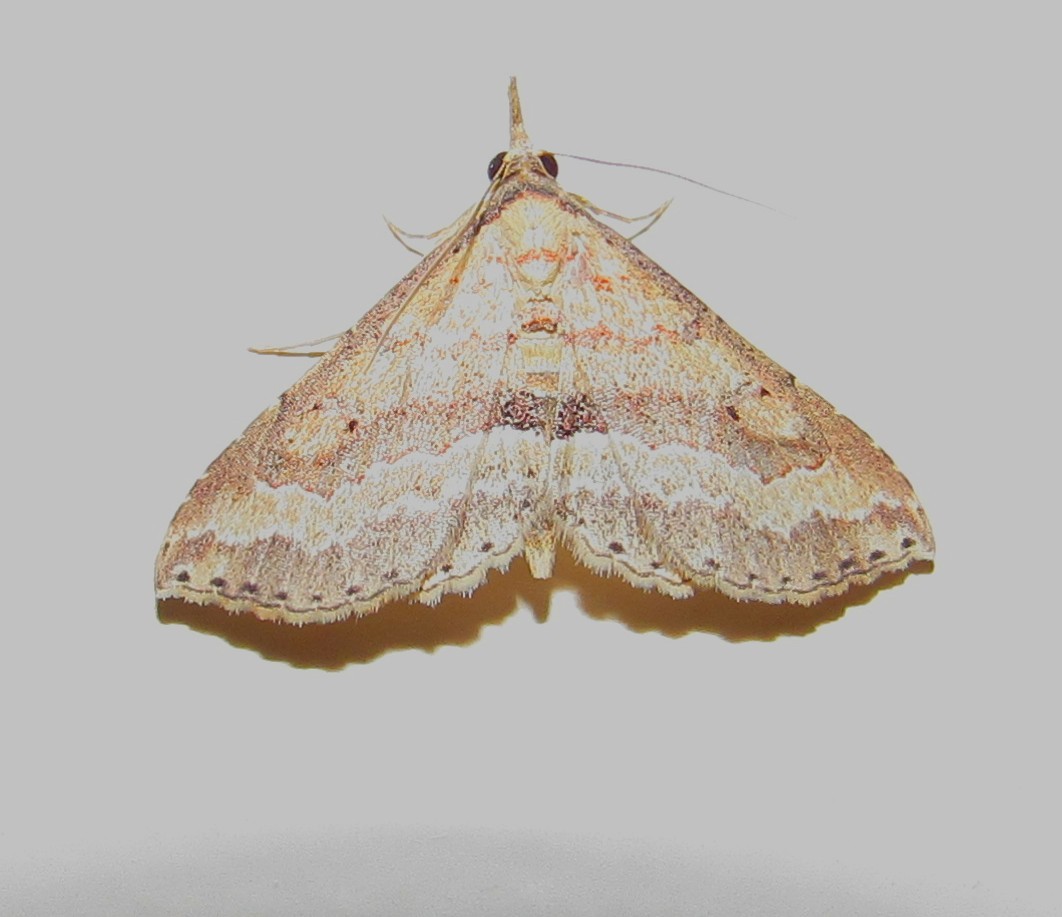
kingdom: Animalia
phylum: Arthropoda
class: Insecta
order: Lepidoptera
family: Erebidae
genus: Mursa
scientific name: Mursa phtisialis
